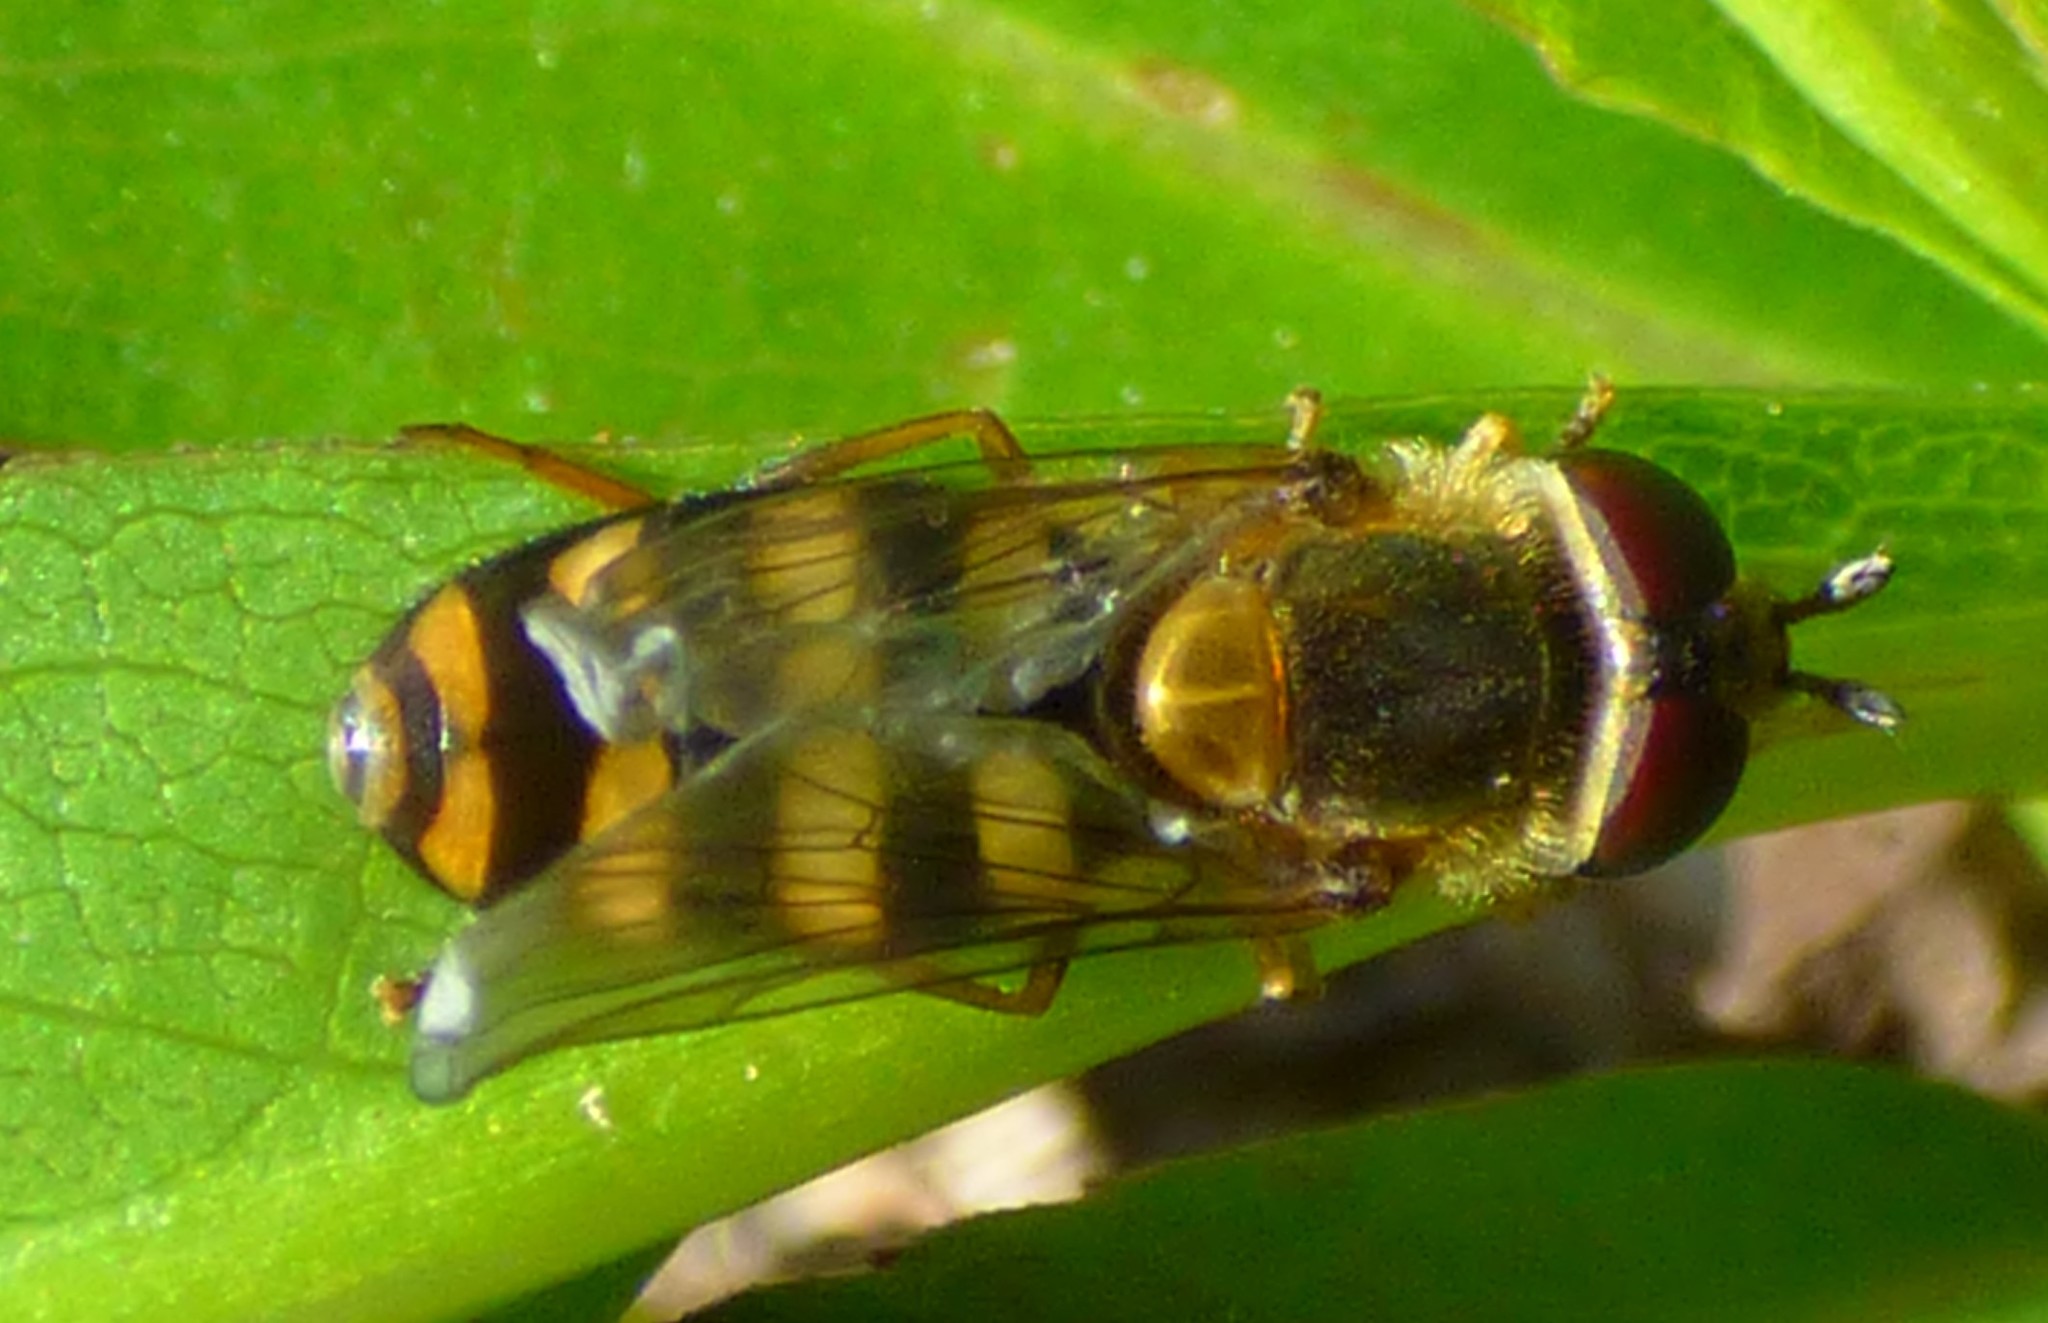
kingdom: Animalia
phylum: Arthropoda
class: Insecta
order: Diptera
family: Syrphidae
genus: Eupeodes
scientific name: Eupeodes
